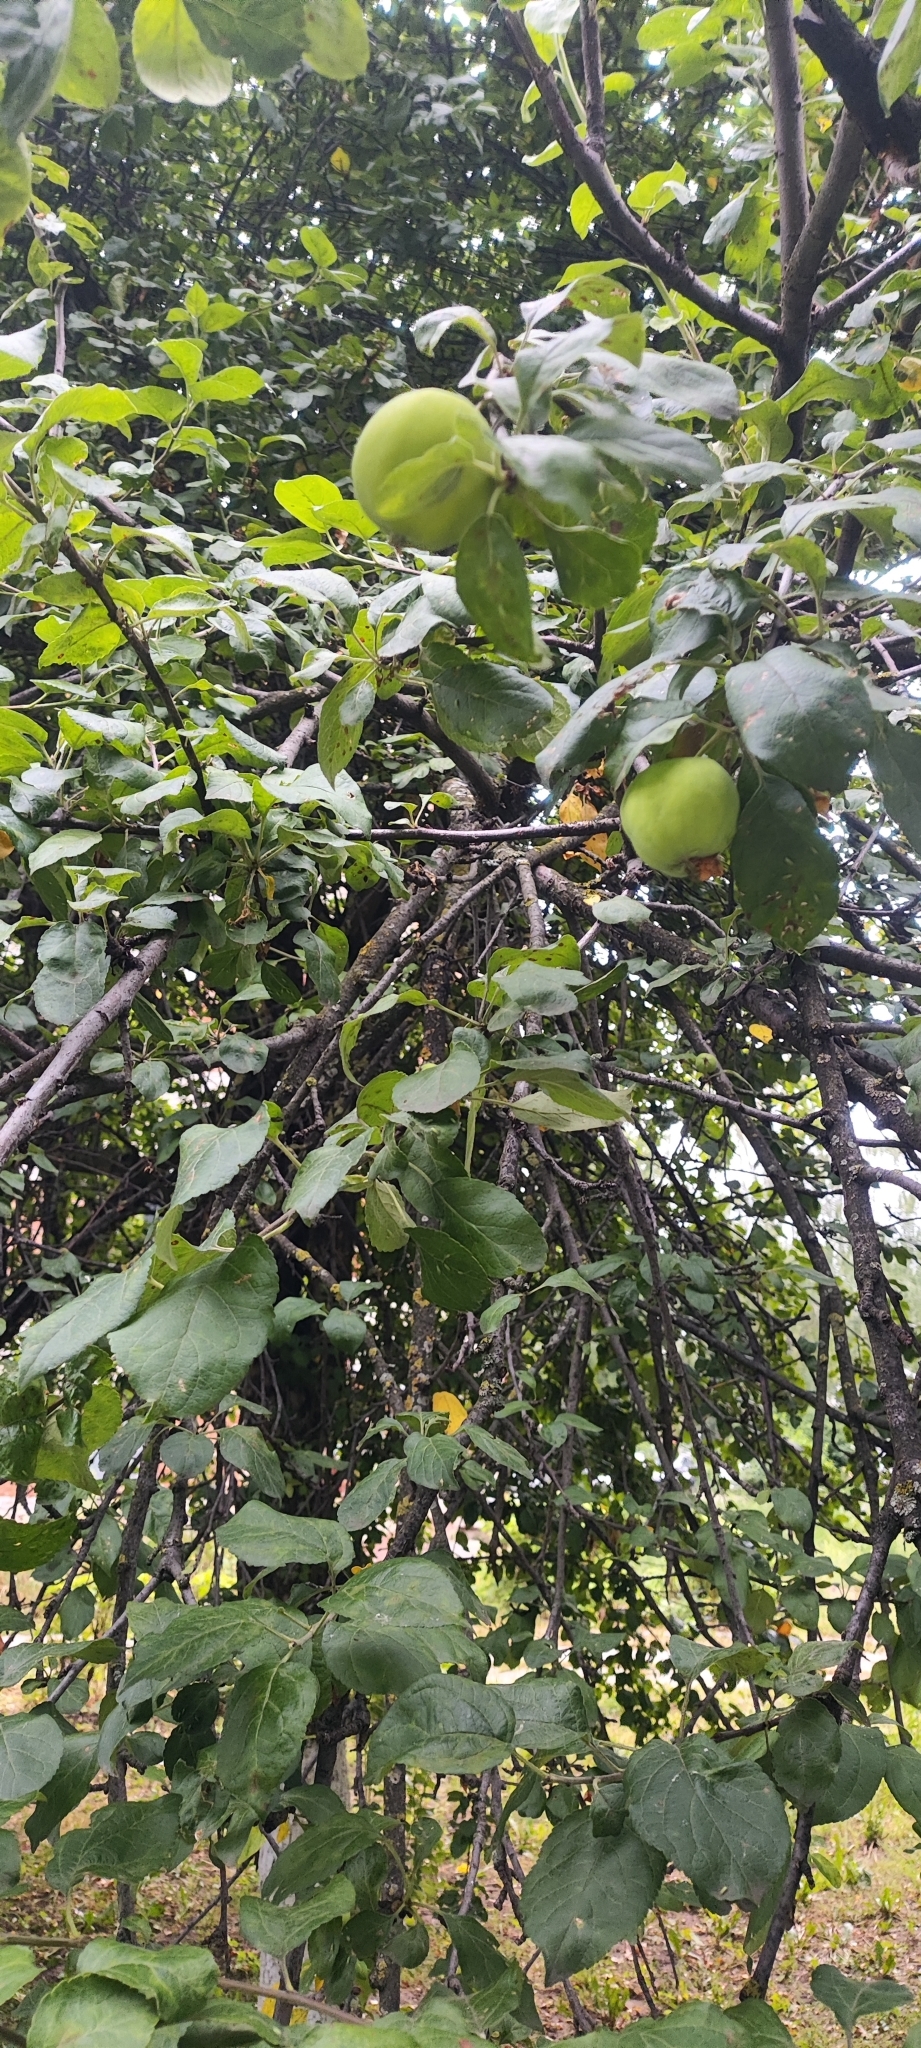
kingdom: Plantae
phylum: Tracheophyta
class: Magnoliopsida
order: Rosales
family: Rosaceae
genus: Malus
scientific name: Malus domestica
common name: Apple
